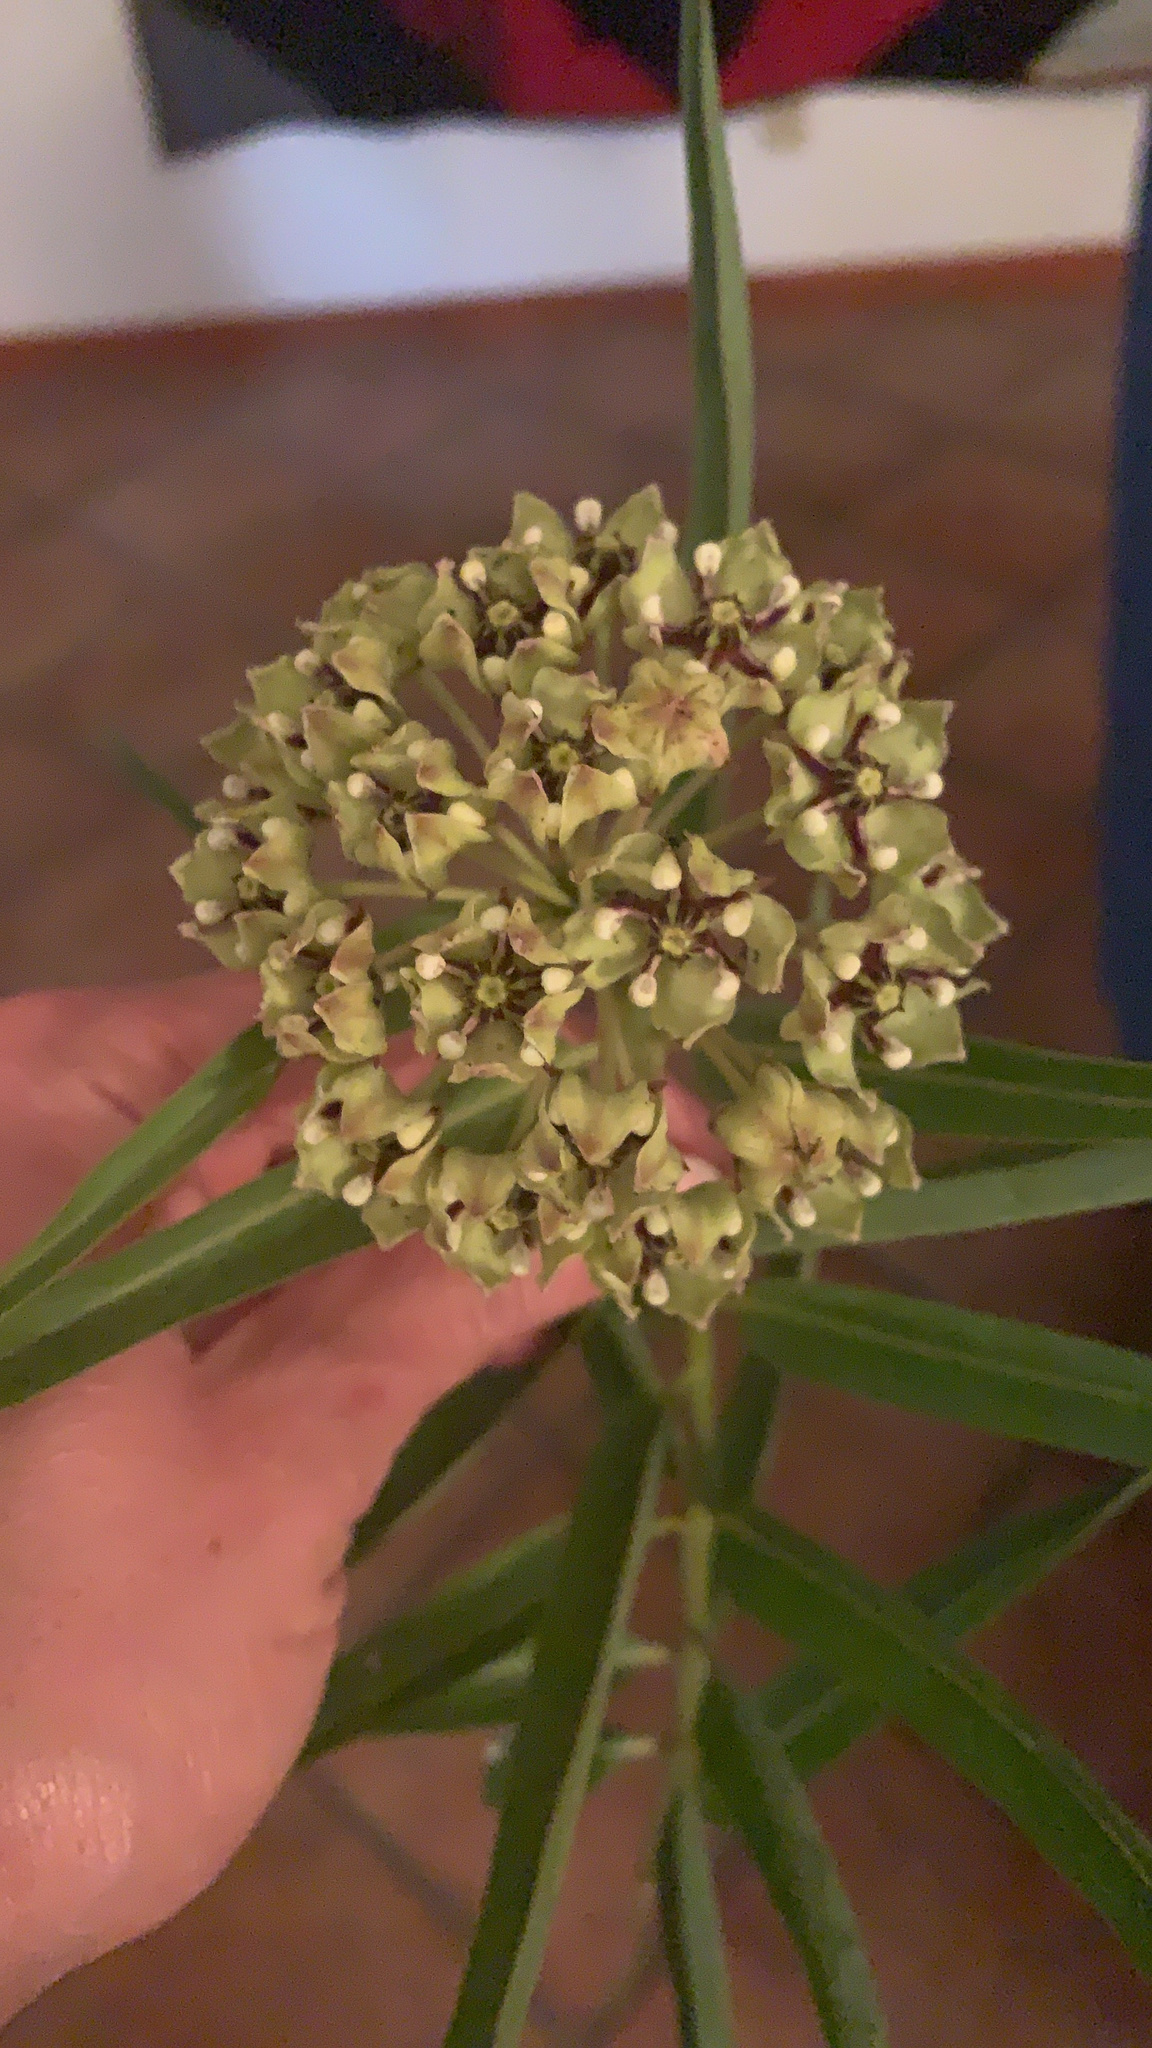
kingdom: Plantae
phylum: Tracheophyta
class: Magnoliopsida
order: Gentianales
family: Apocynaceae
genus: Asclepias
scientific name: Asclepias asperula
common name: Antelope horns
